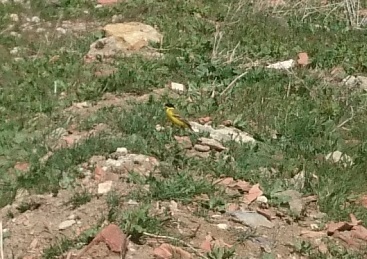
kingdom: Animalia
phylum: Chordata
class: Aves
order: Passeriformes
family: Motacillidae
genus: Motacilla
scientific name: Motacilla flava
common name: Western yellow wagtail
